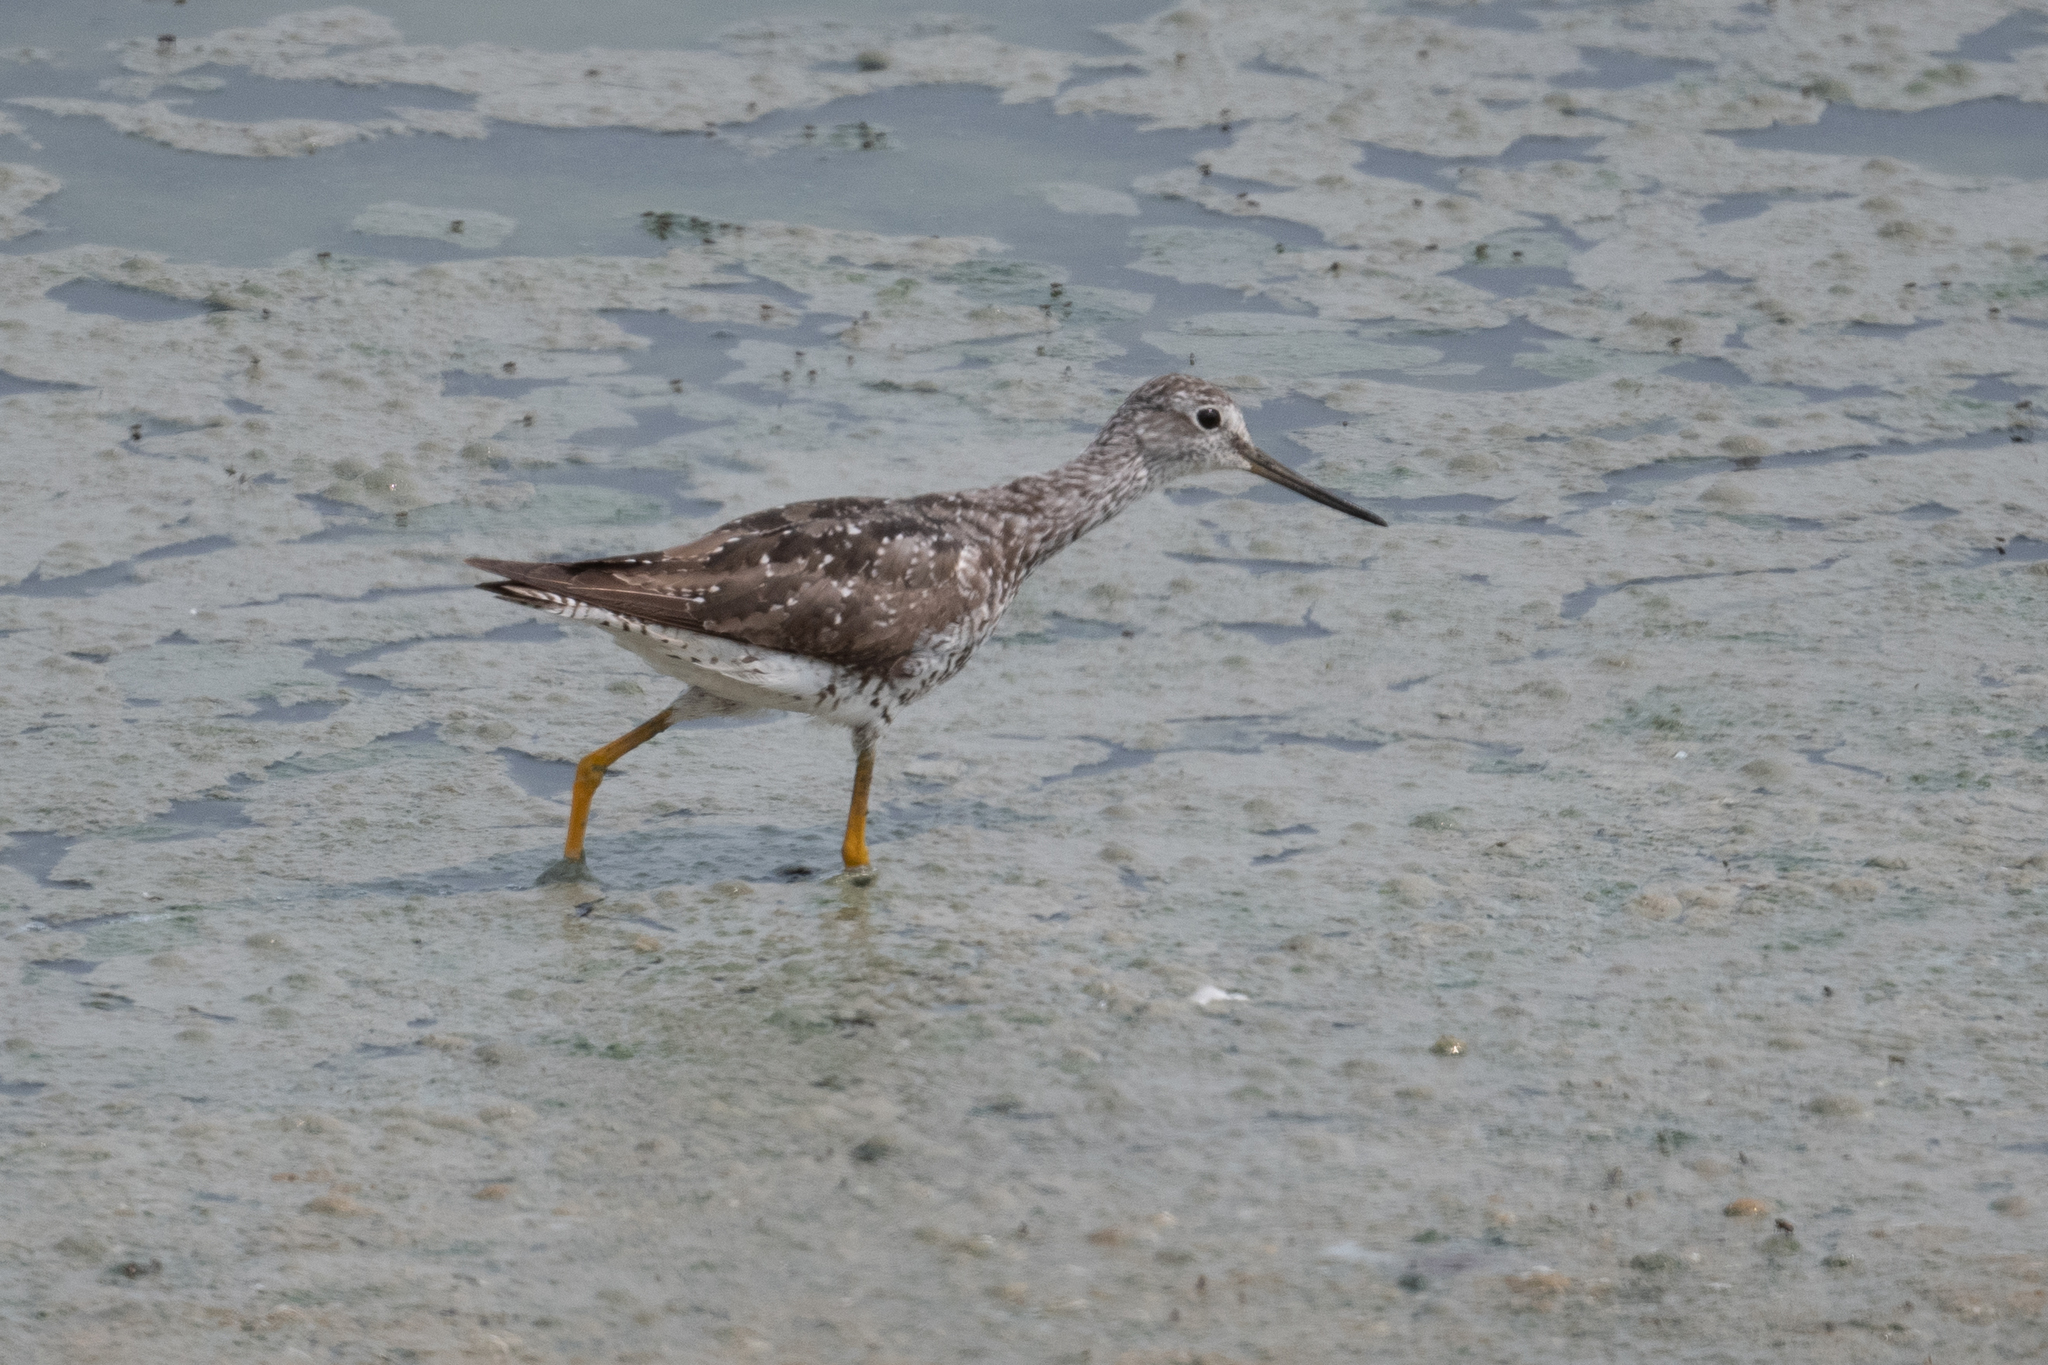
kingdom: Animalia
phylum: Chordata
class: Aves
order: Charadriiformes
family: Scolopacidae
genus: Tringa
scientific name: Tringa melanoleuca
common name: Greater yellowlegs
